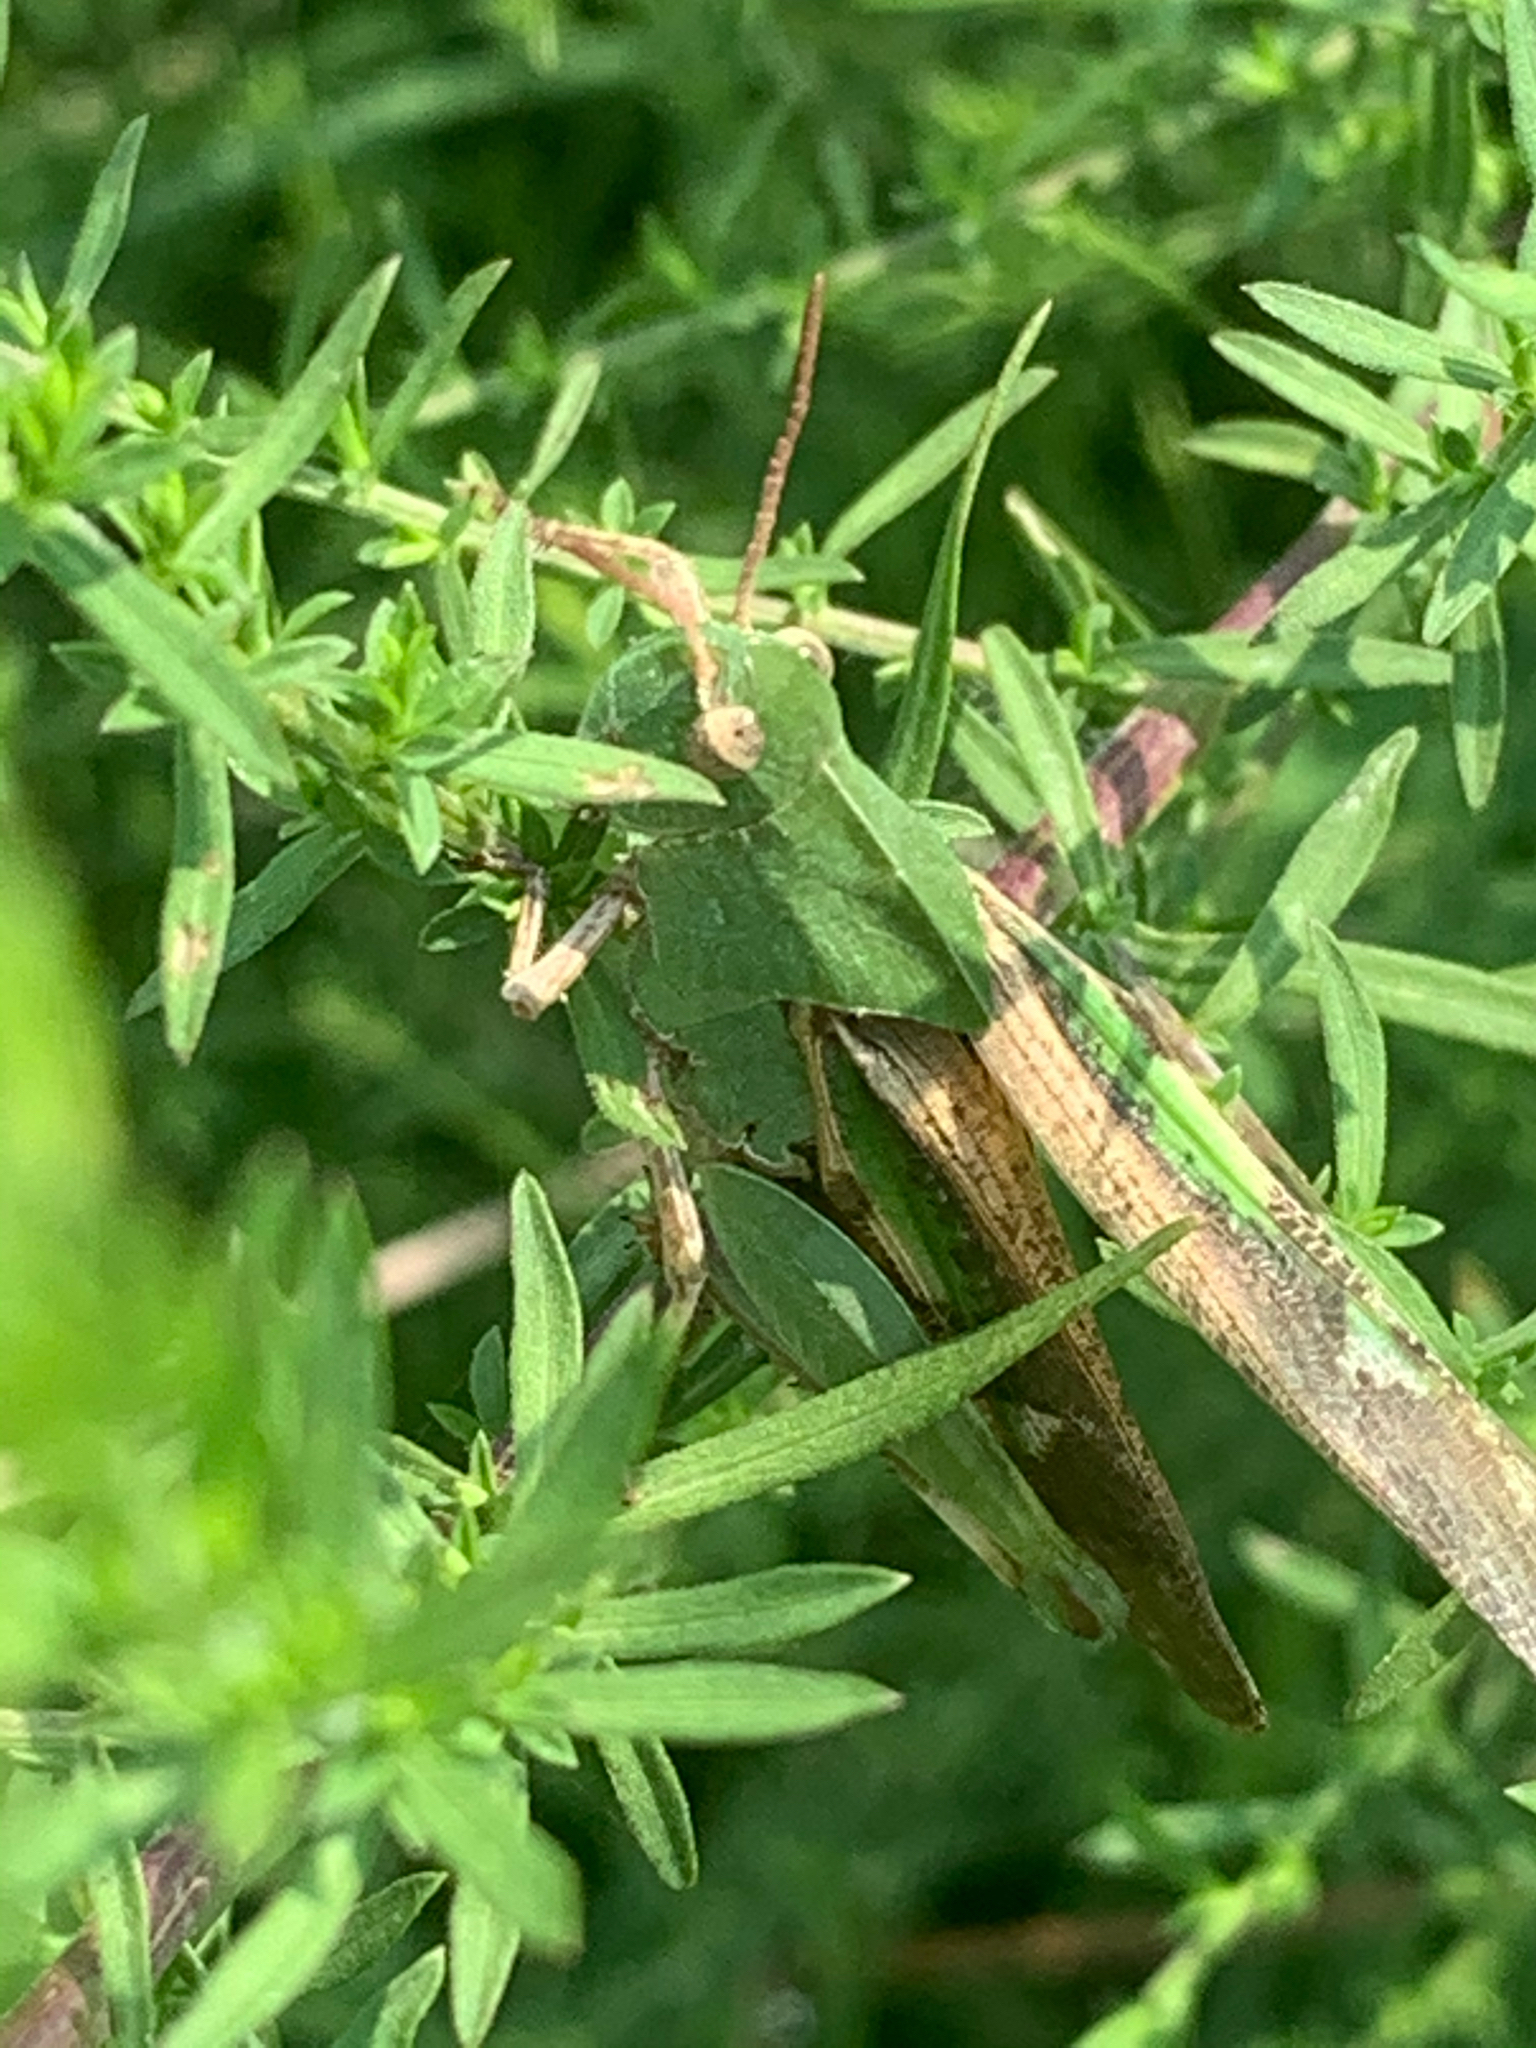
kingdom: Animalia
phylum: Arthropoda
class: Insecta
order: Orthoptera
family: Acrididae
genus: Chortophaga
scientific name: Chortophaga viridifasciata
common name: Green-striped grasshopper
